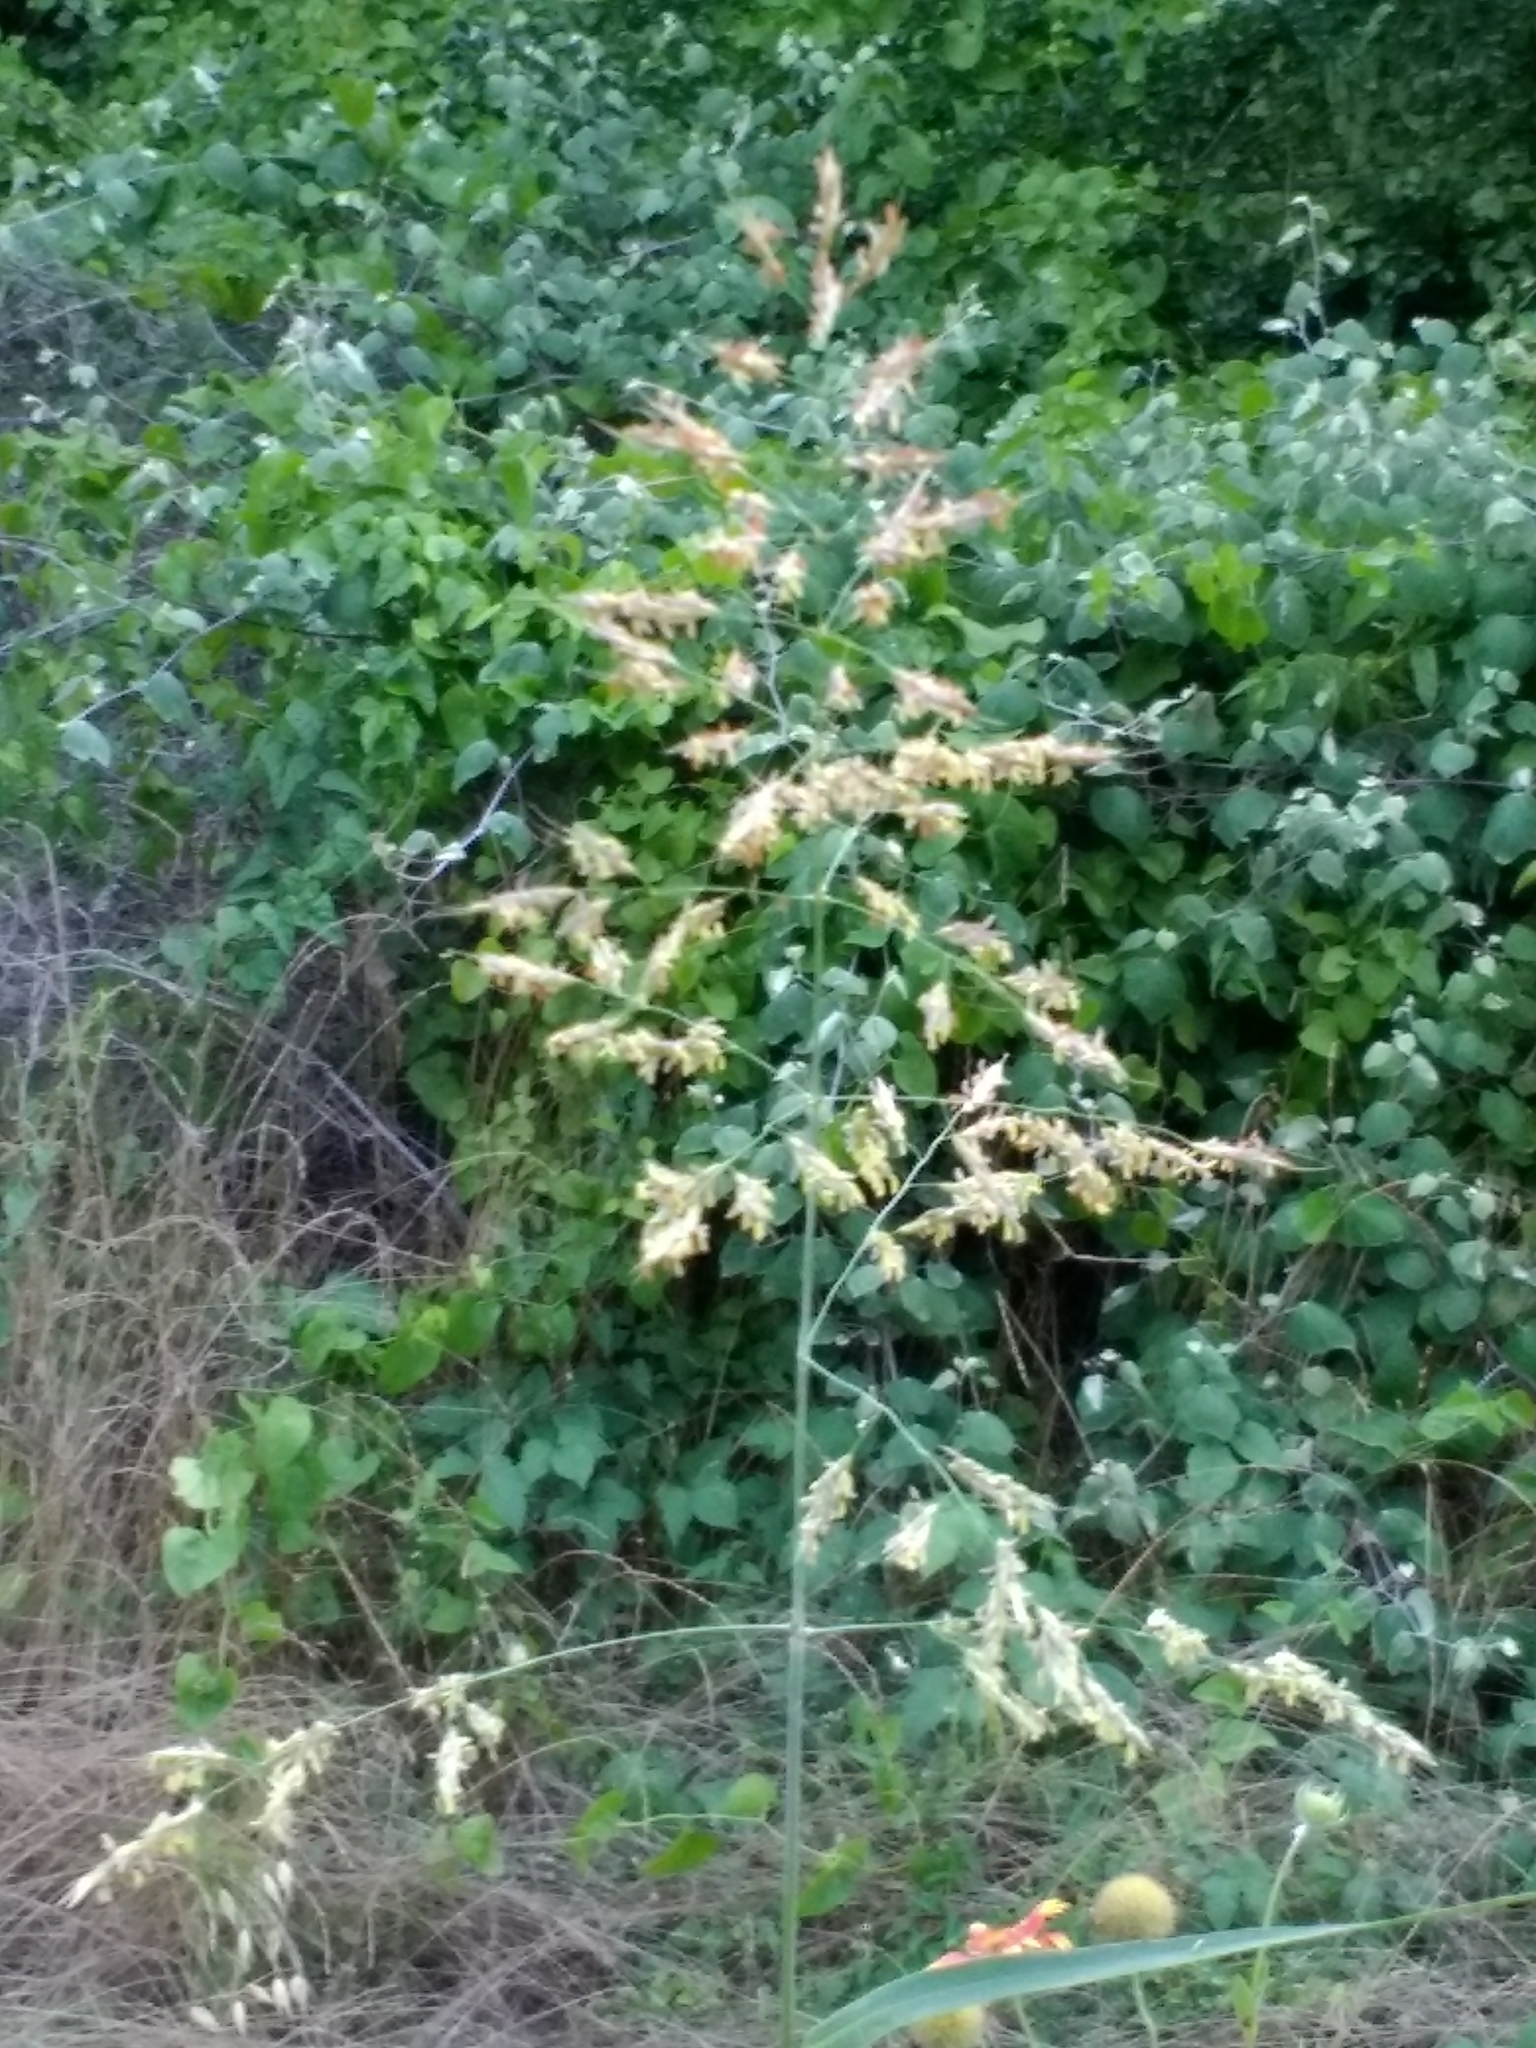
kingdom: Plantae
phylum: Tracheophyta
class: Liliopsida
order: Poales
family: Poaceae
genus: Sorghum
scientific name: Sorghum halepense
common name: Johnson-grass
